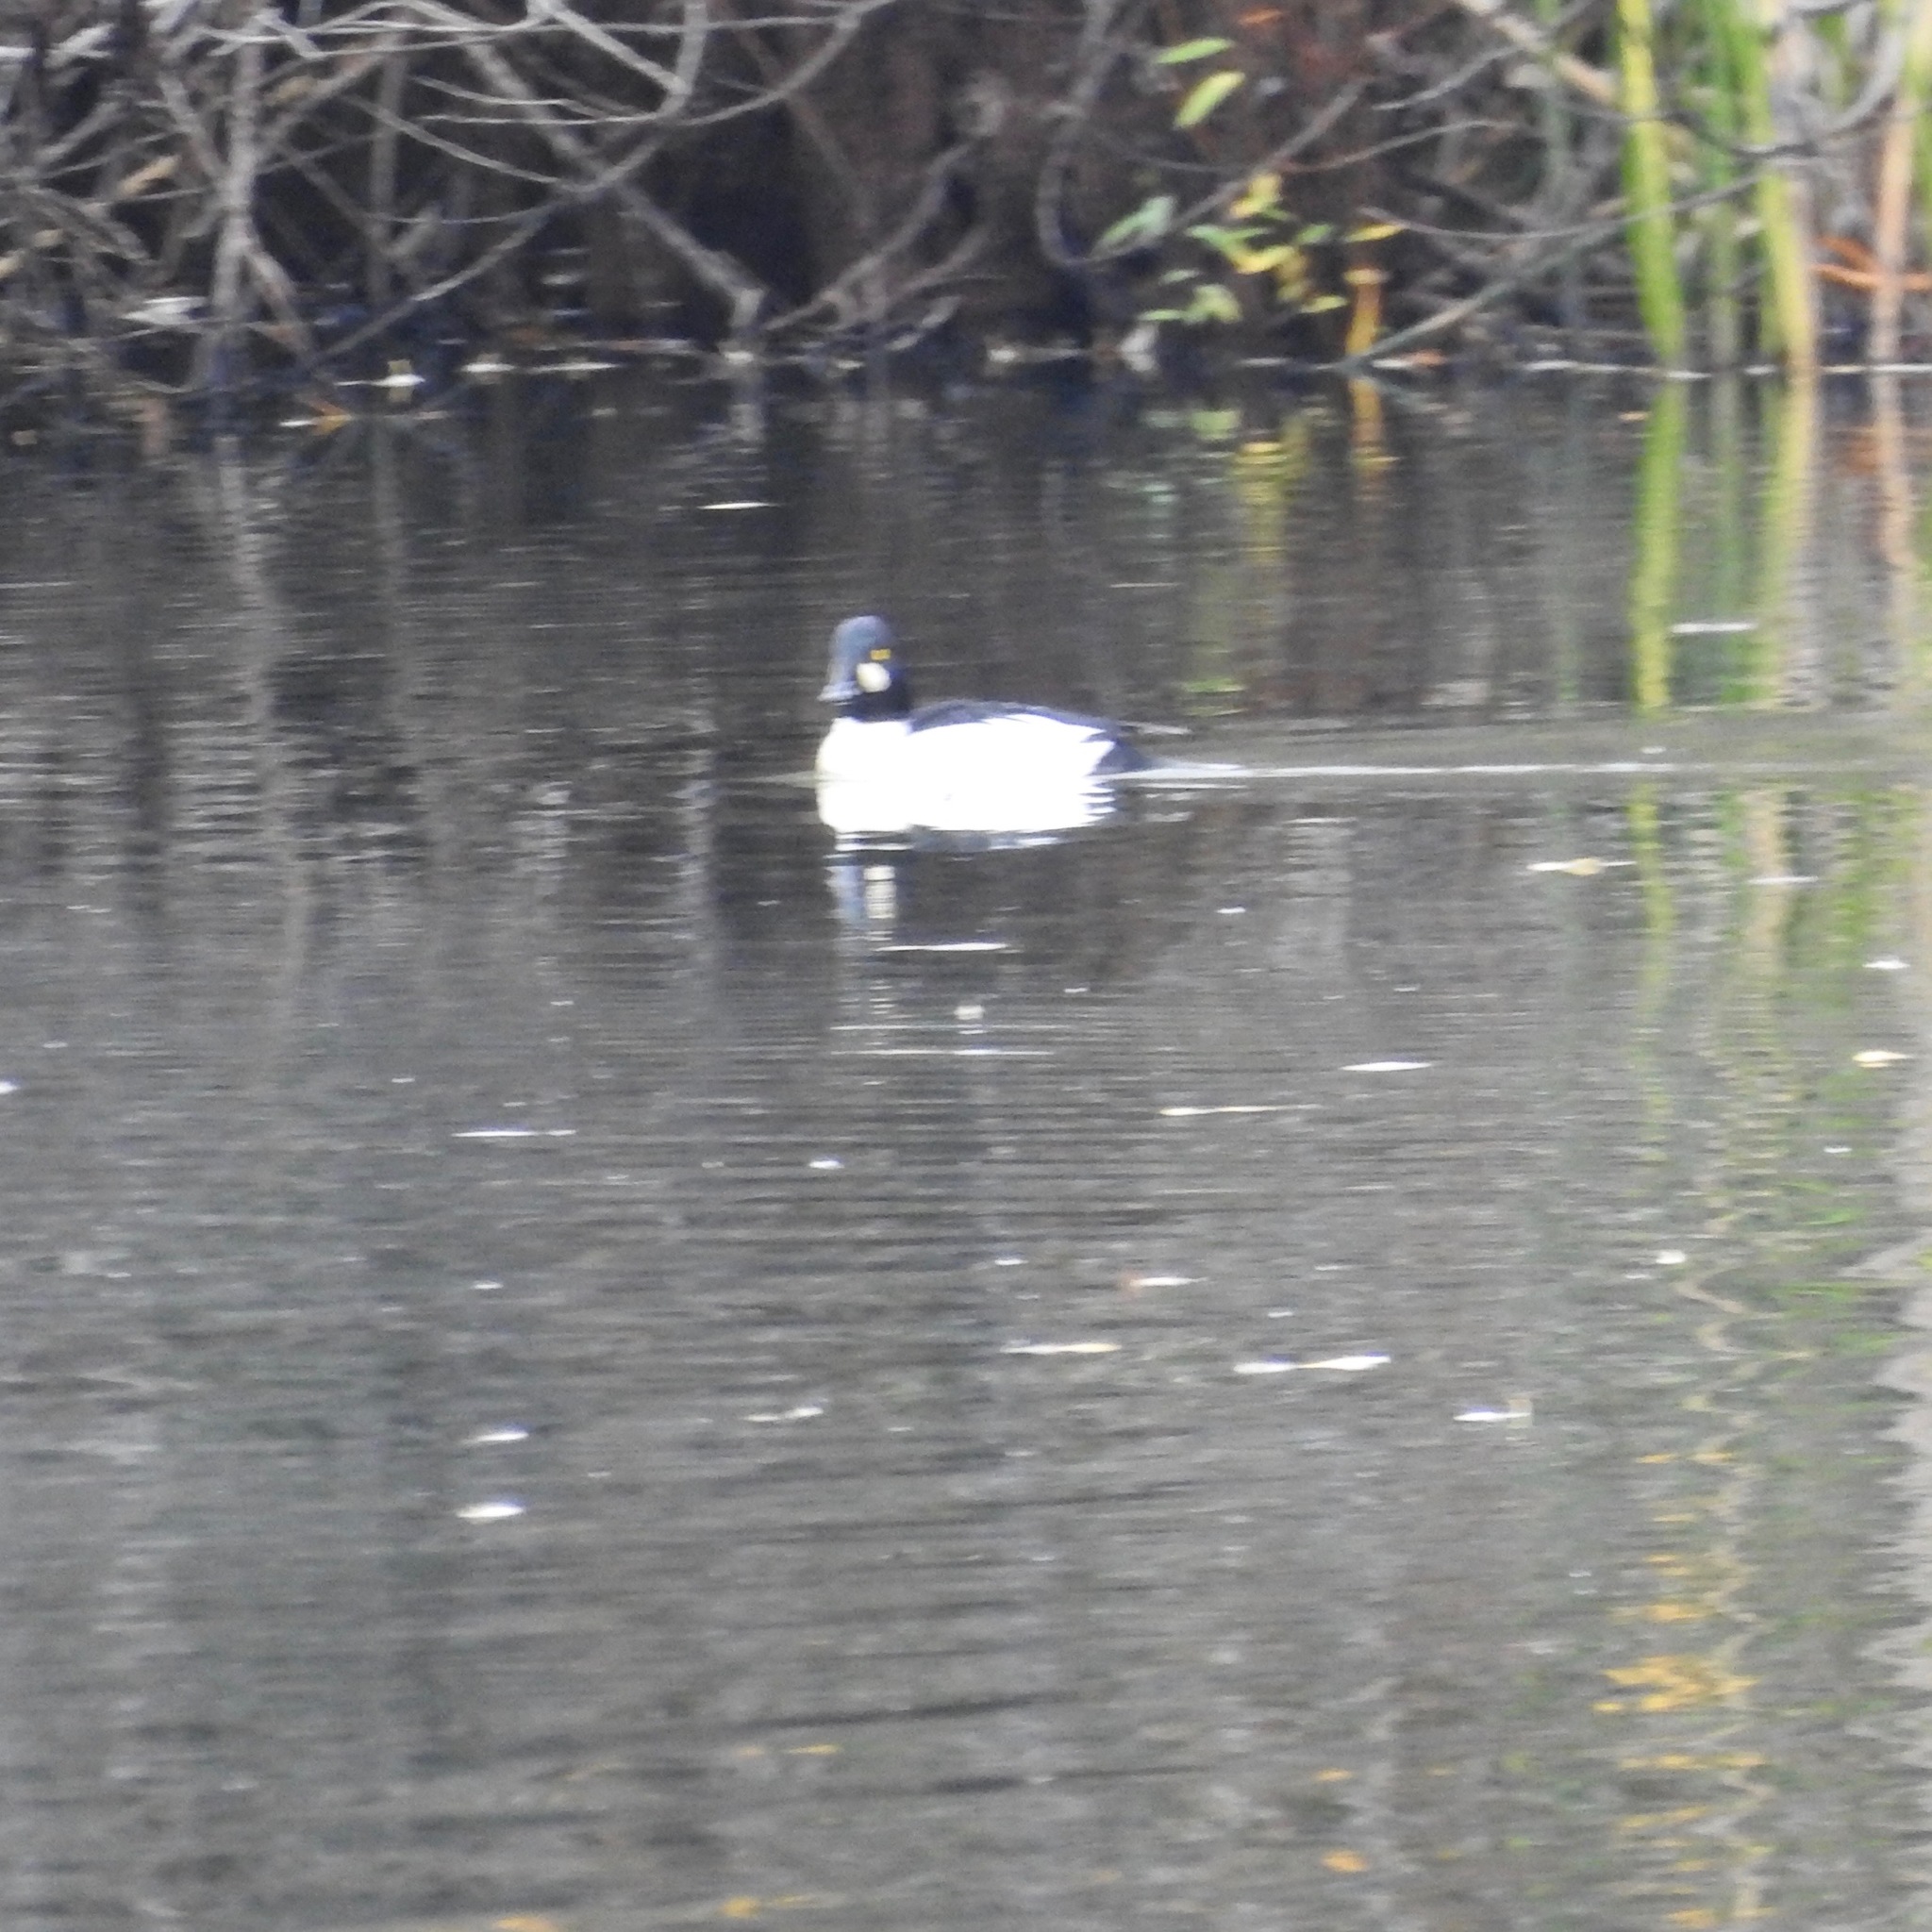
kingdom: Animalia
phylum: Chordata
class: Aves
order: Anseriformes
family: Anatidae
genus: Bucephala
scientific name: Bucephala clangula
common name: Common goldeneye
